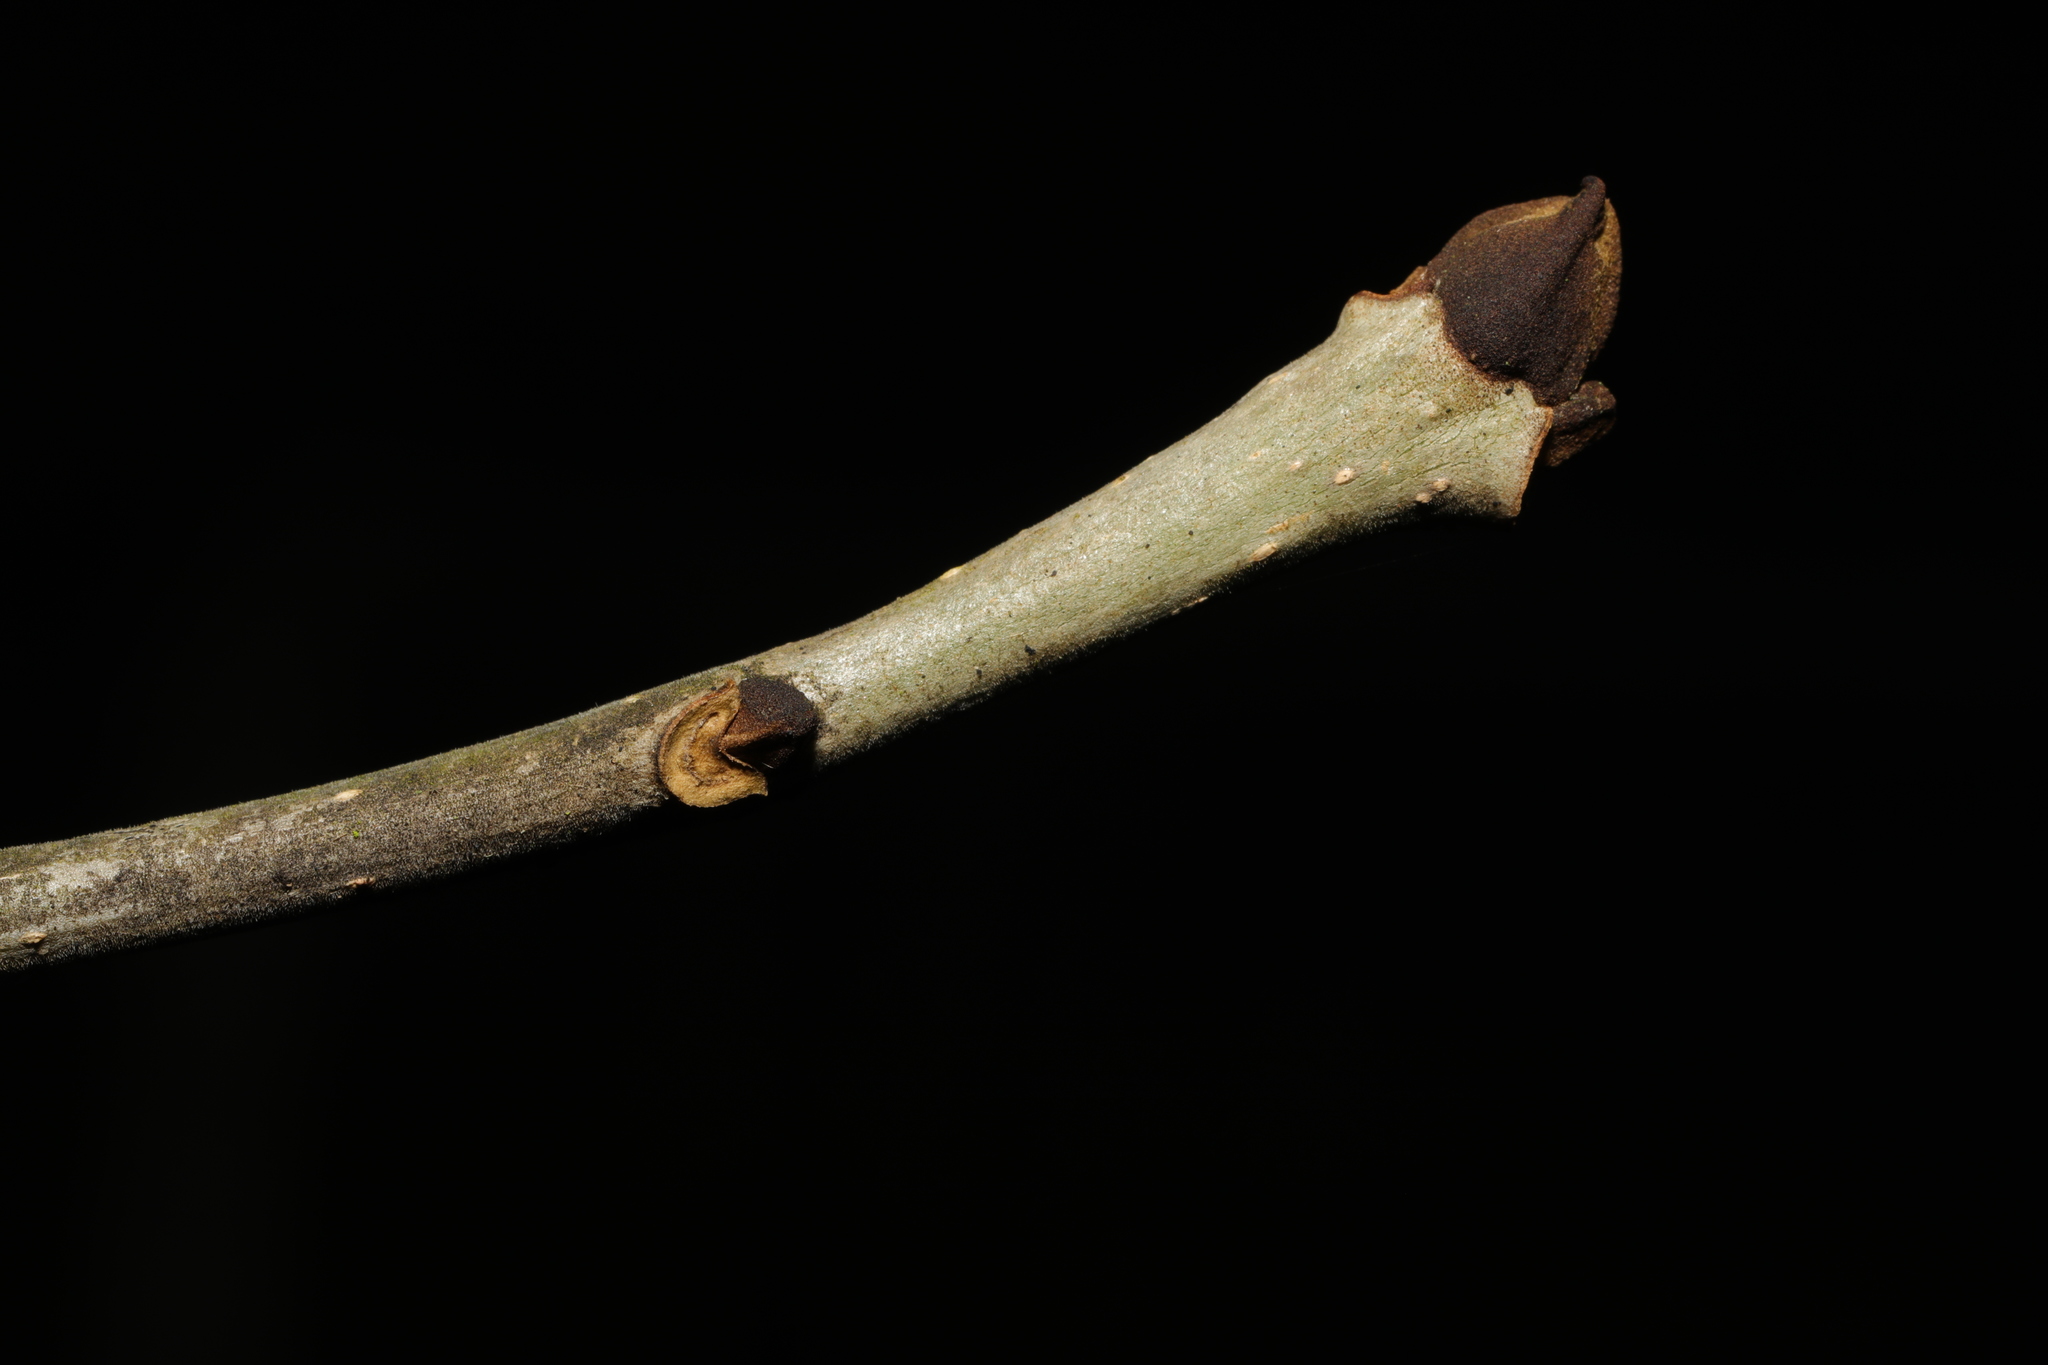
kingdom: Plantae
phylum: Tracheophyta
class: Magnoliopsida
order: Lamiales
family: Oleaceae
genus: Fraxinus
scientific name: Fraxinus excelsior
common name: European ash
